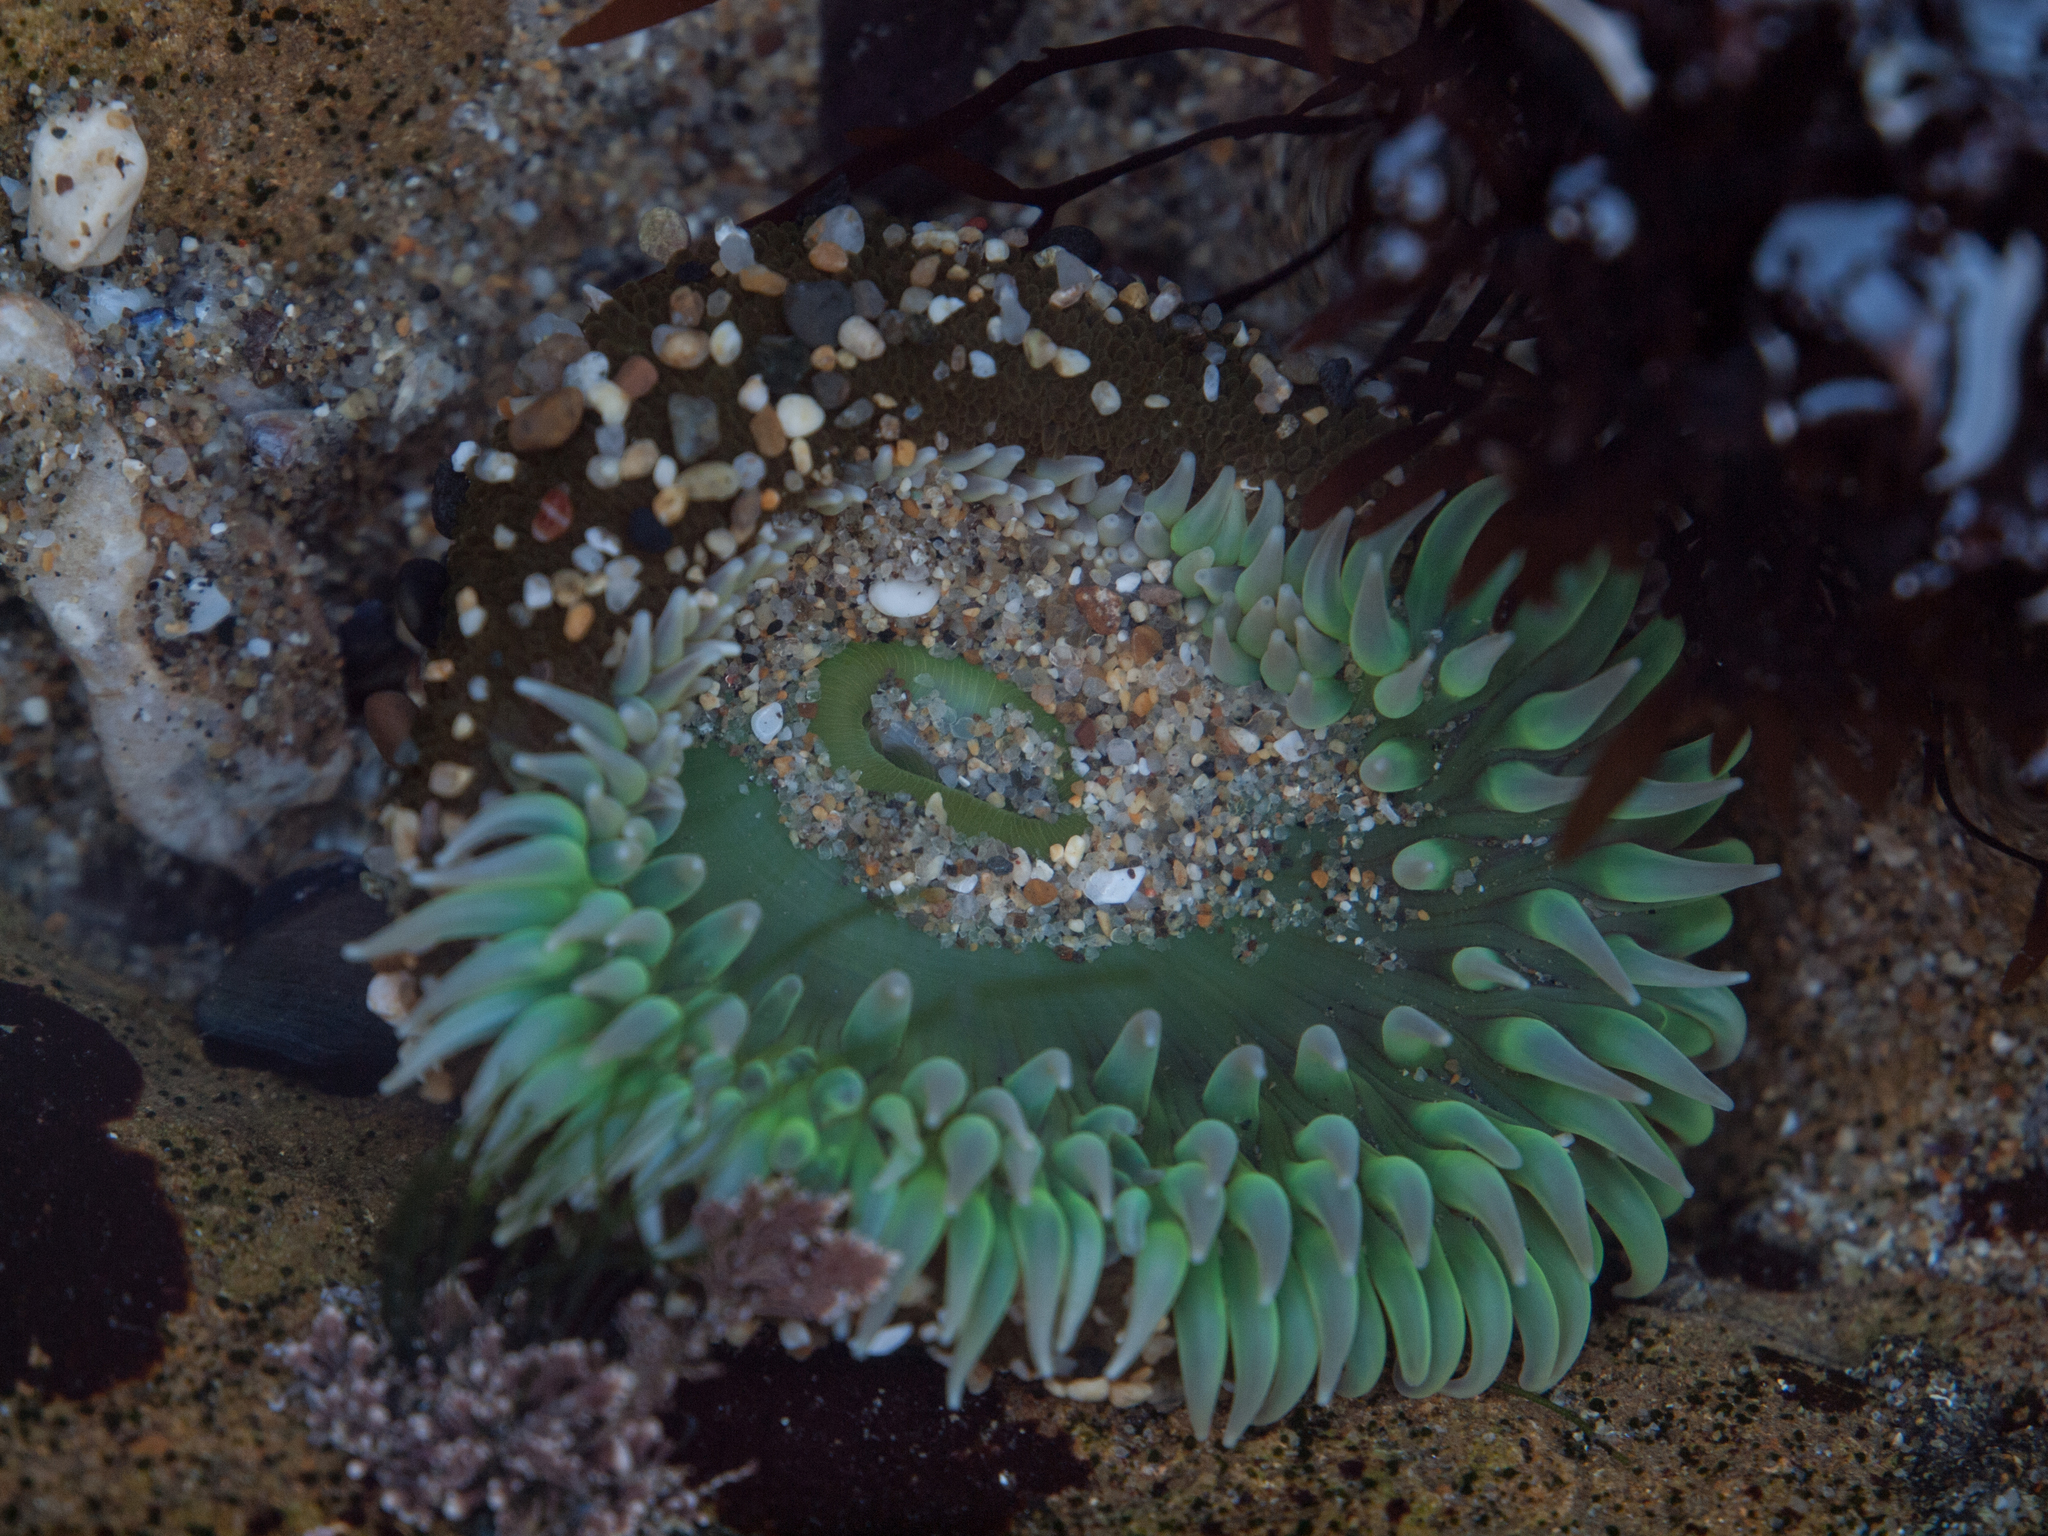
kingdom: Animalia
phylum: Cnidaria
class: Anthozoa
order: Actiniaria
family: Actiniidae
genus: Anthopleura
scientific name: Anthopleura xanthogrammica
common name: Giant green anemone
